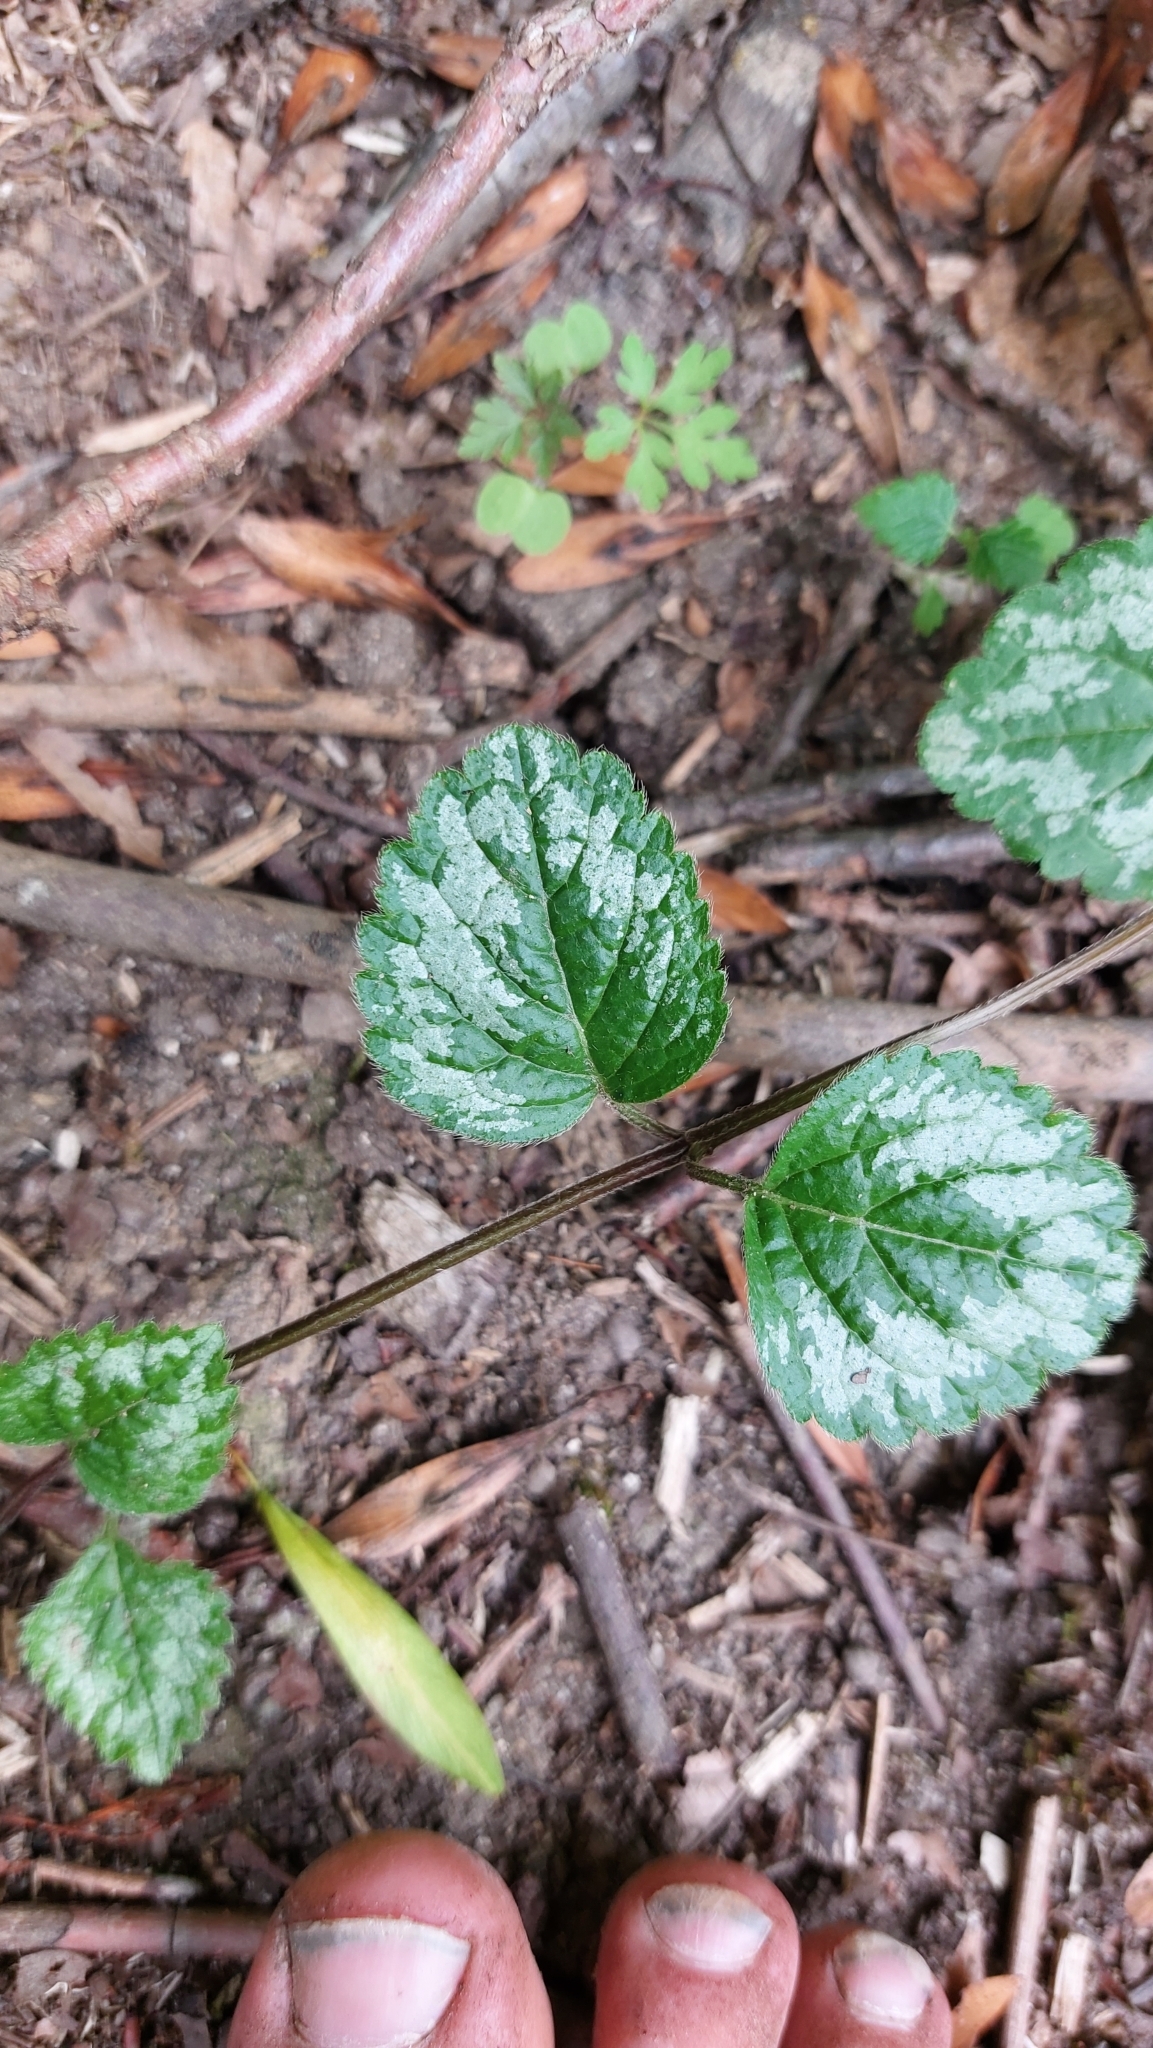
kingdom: Plantae
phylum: Tracheophyta
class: Magnoliopsida
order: Lamiales
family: Lamiaceae
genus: Lamium
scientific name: Lamium galeobdolon
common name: Yellow archangel
